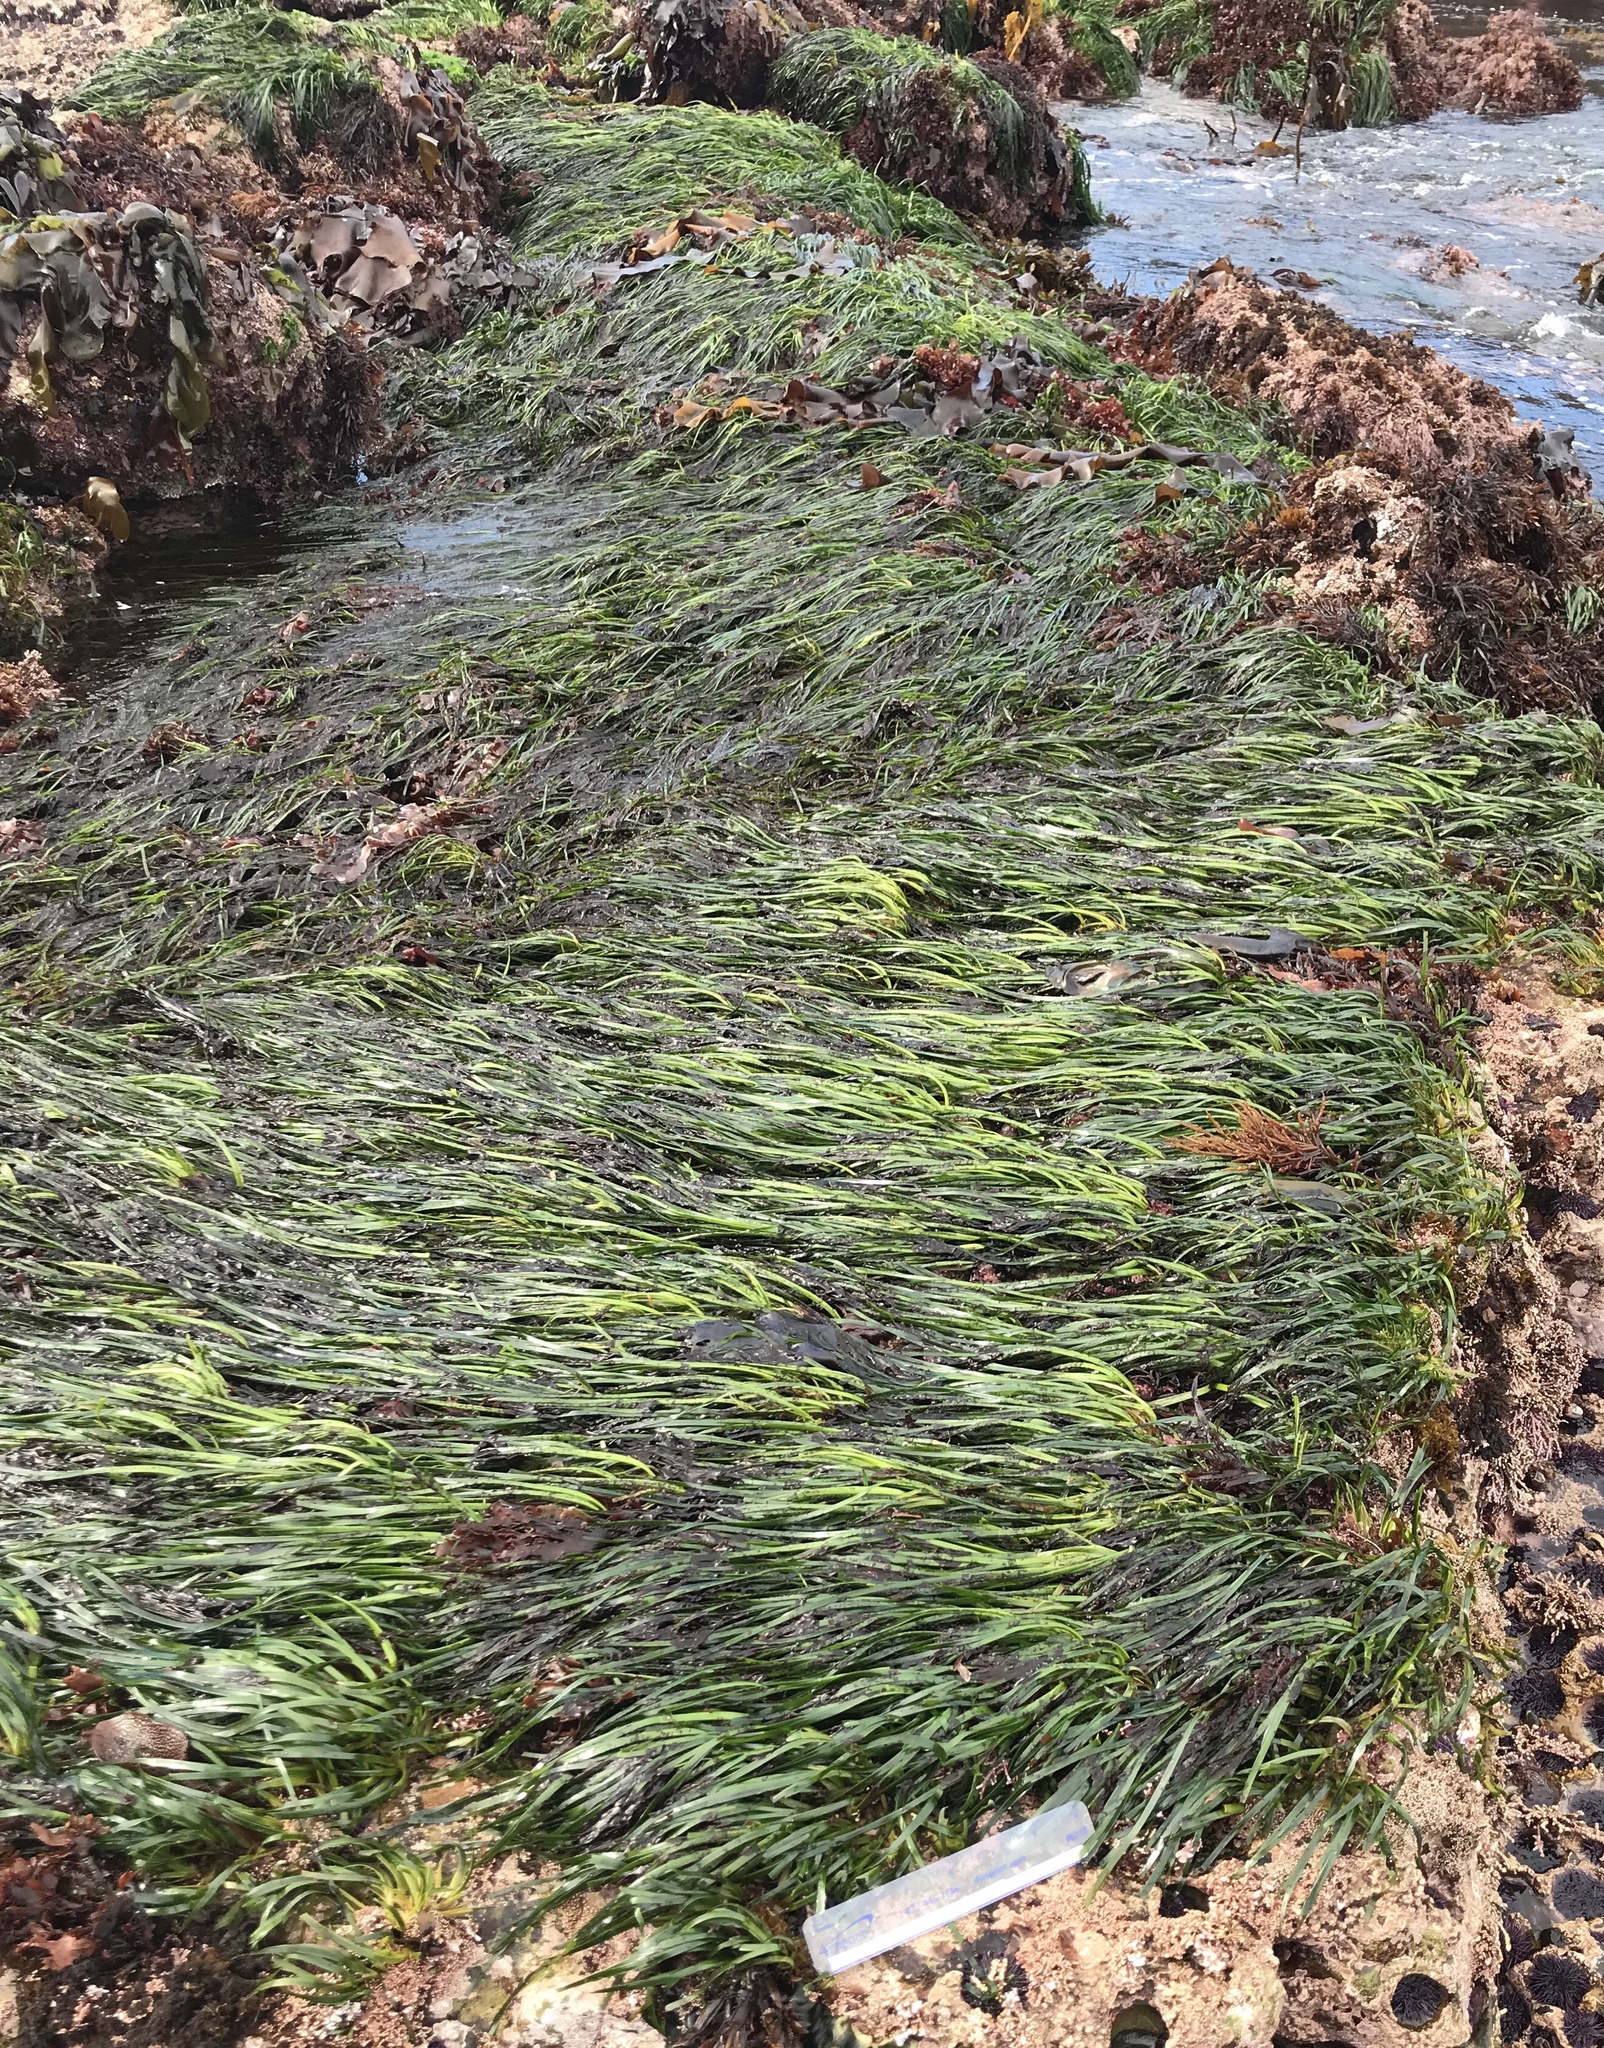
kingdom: Plantae
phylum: Tracheophyta
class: Liliopsida
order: Alismatales
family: Zosteraceae
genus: Phyllospadix
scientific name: Phyllospadix scouleri
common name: Species code: ps
